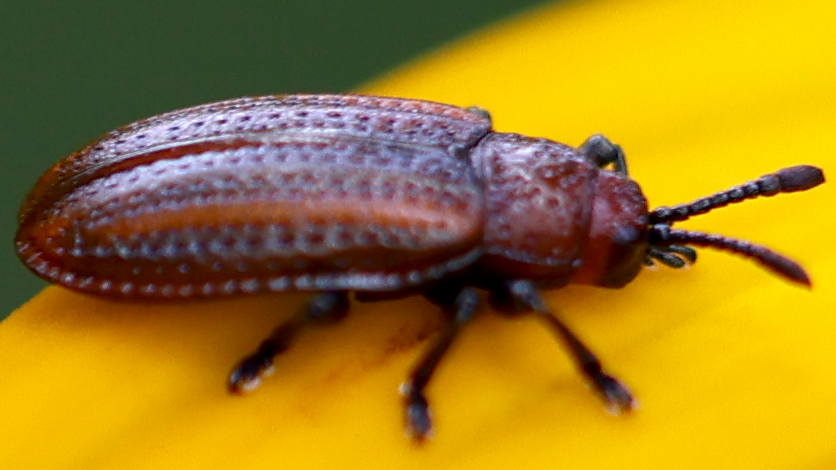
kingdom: Animalia
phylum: Arthropoda
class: Insecta
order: Coleoptera
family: Chrysomelidae
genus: Microrhopala
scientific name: Microrhopala vittata
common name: Goldenrod leaf miner beetle
